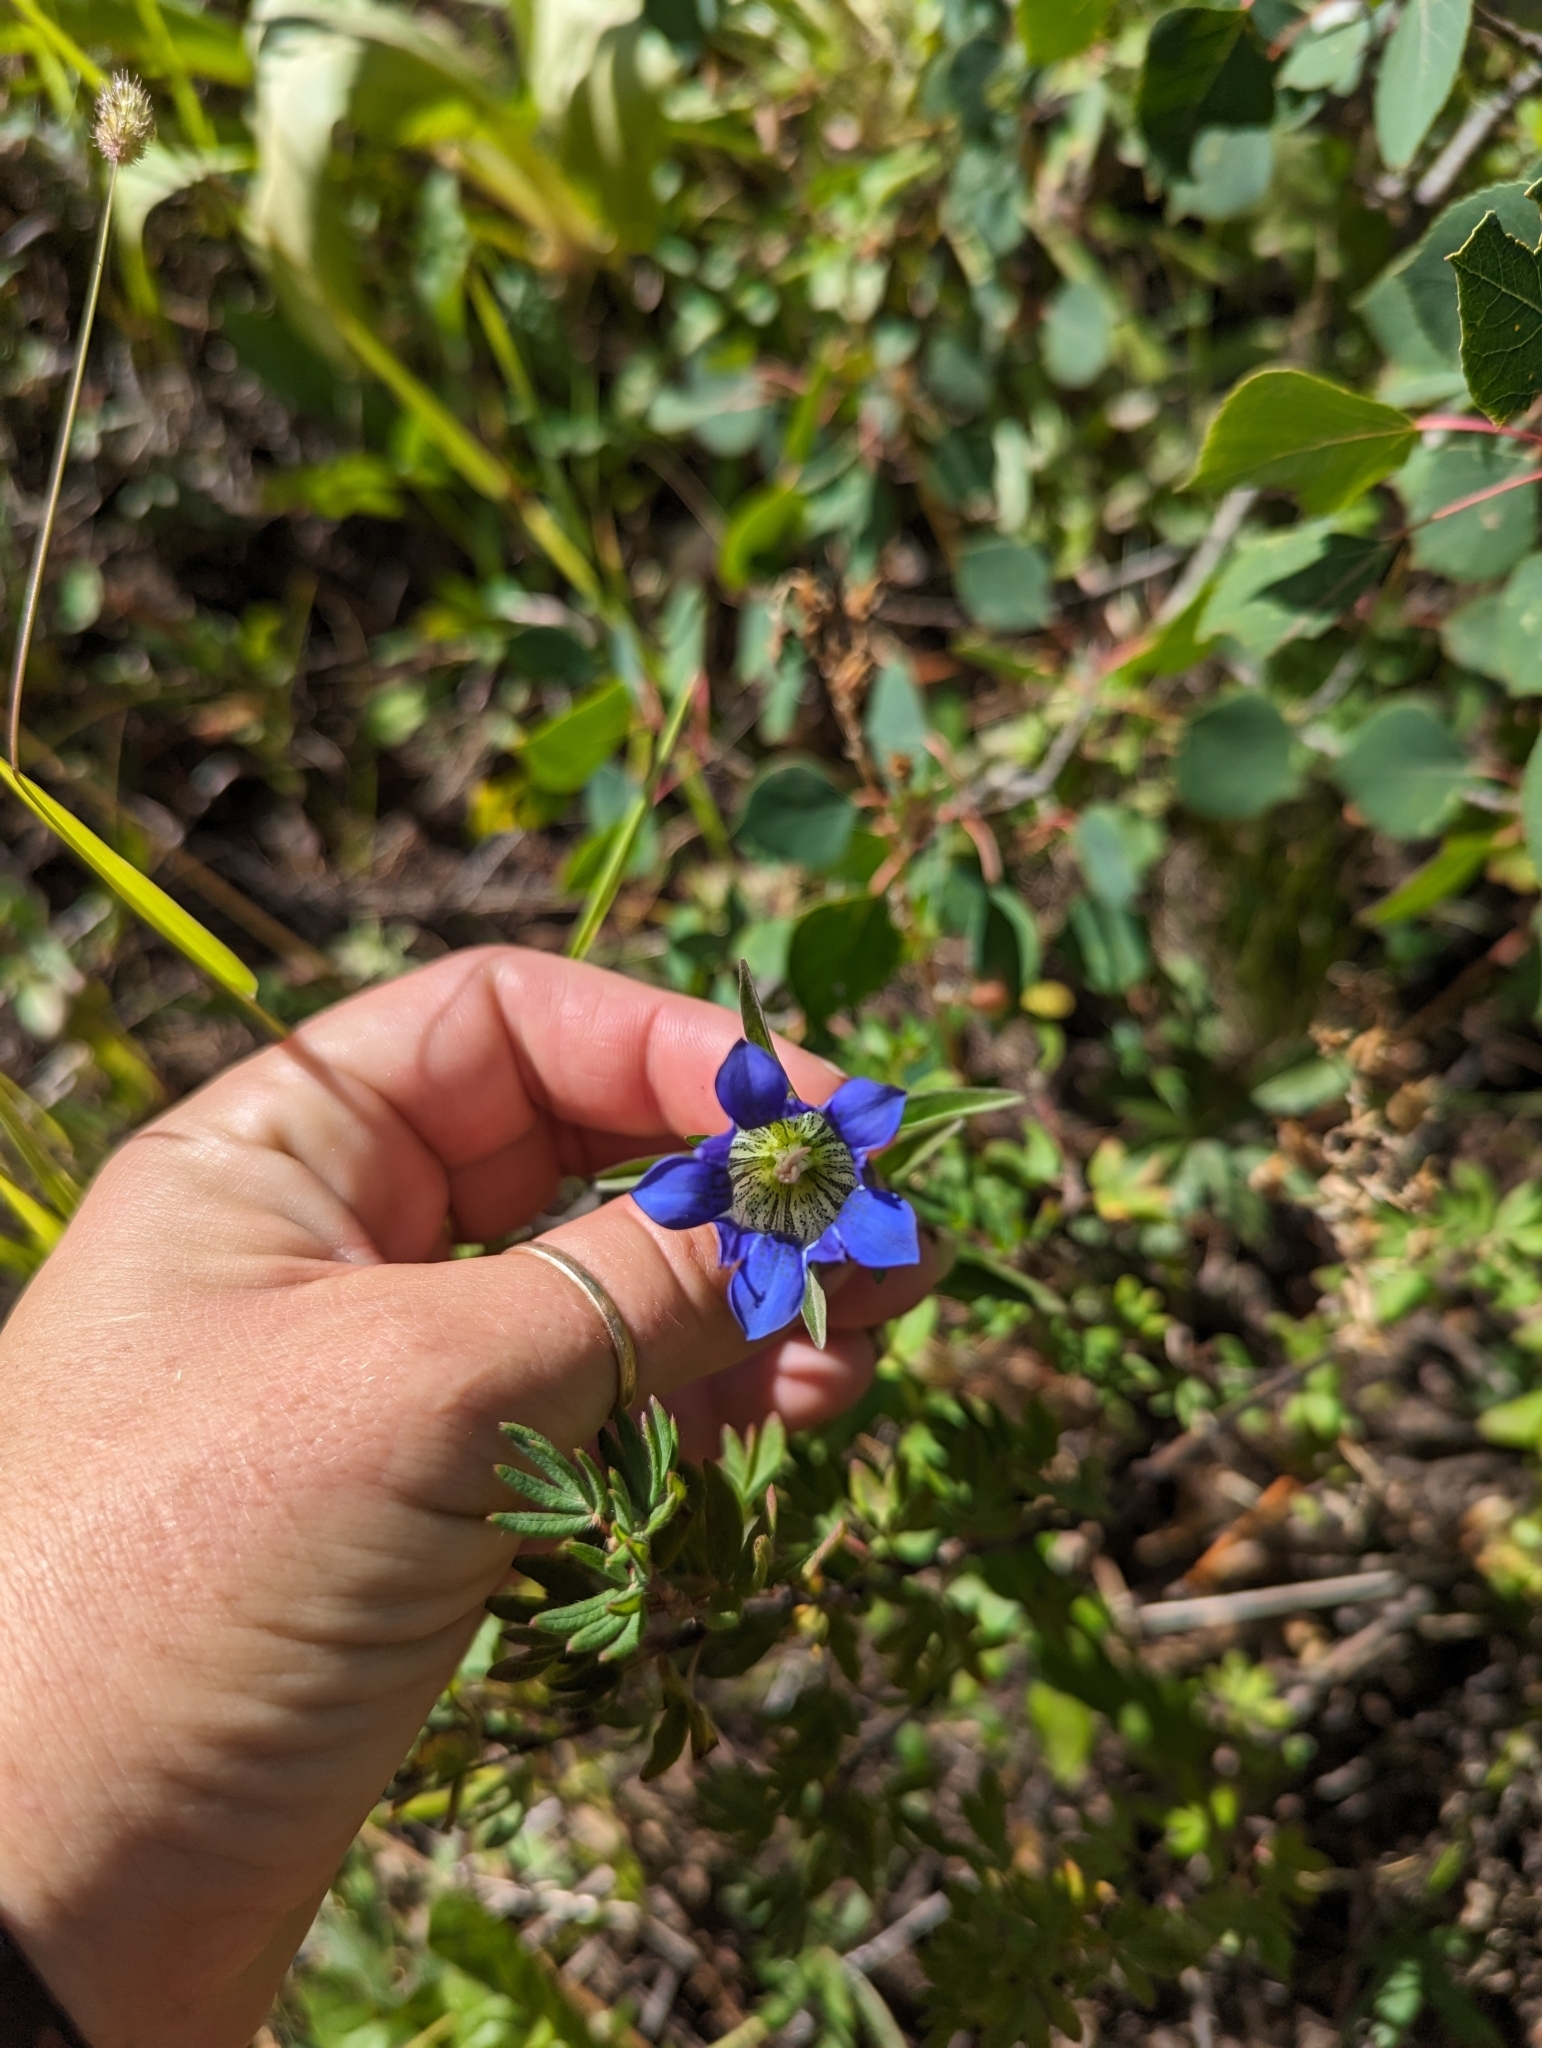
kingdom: Plantae
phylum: Tracheophyta
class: Magnoliopsida
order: Gentianales
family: Gentianaceae
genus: Gentiana
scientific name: Gentiana parryi
